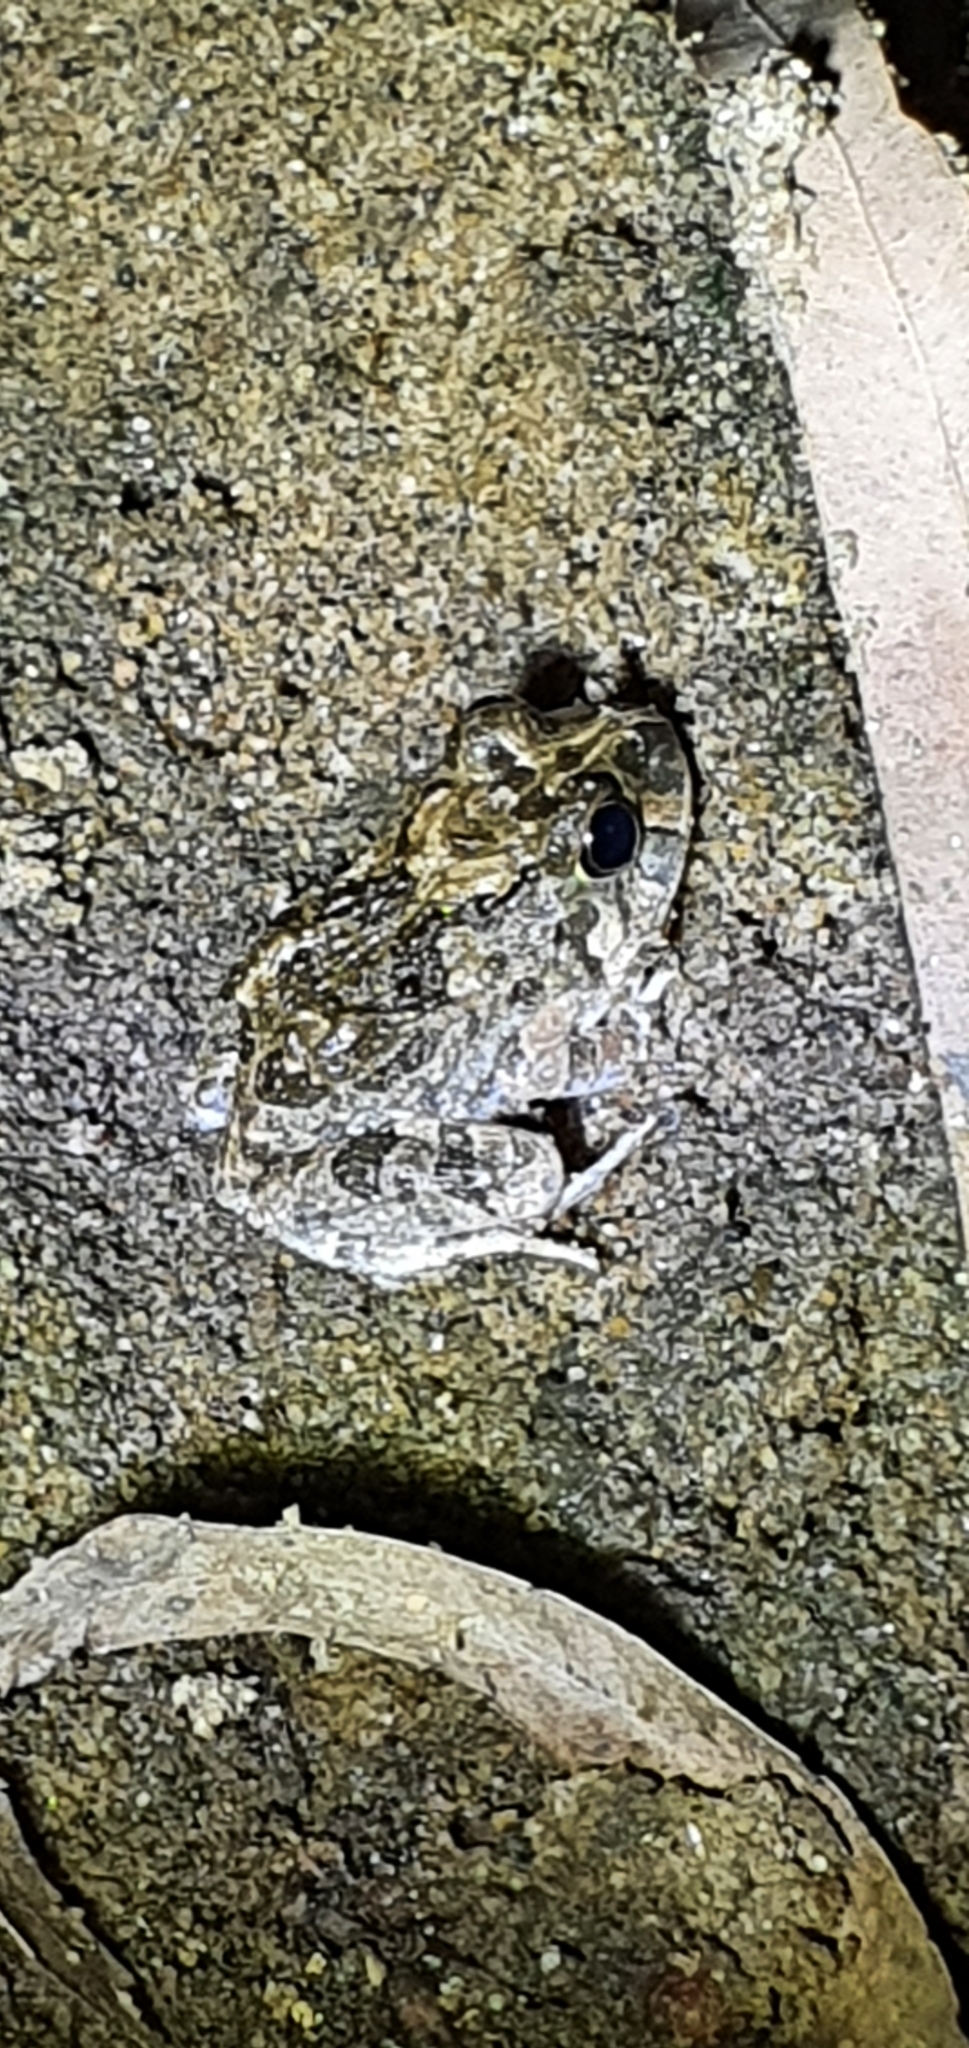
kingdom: Animalia
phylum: Chordata
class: Amphibia
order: Anura
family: Limnodynastidae
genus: Platyplectrum
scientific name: Platyplectrum ornatum
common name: Ornate burrowing frog
